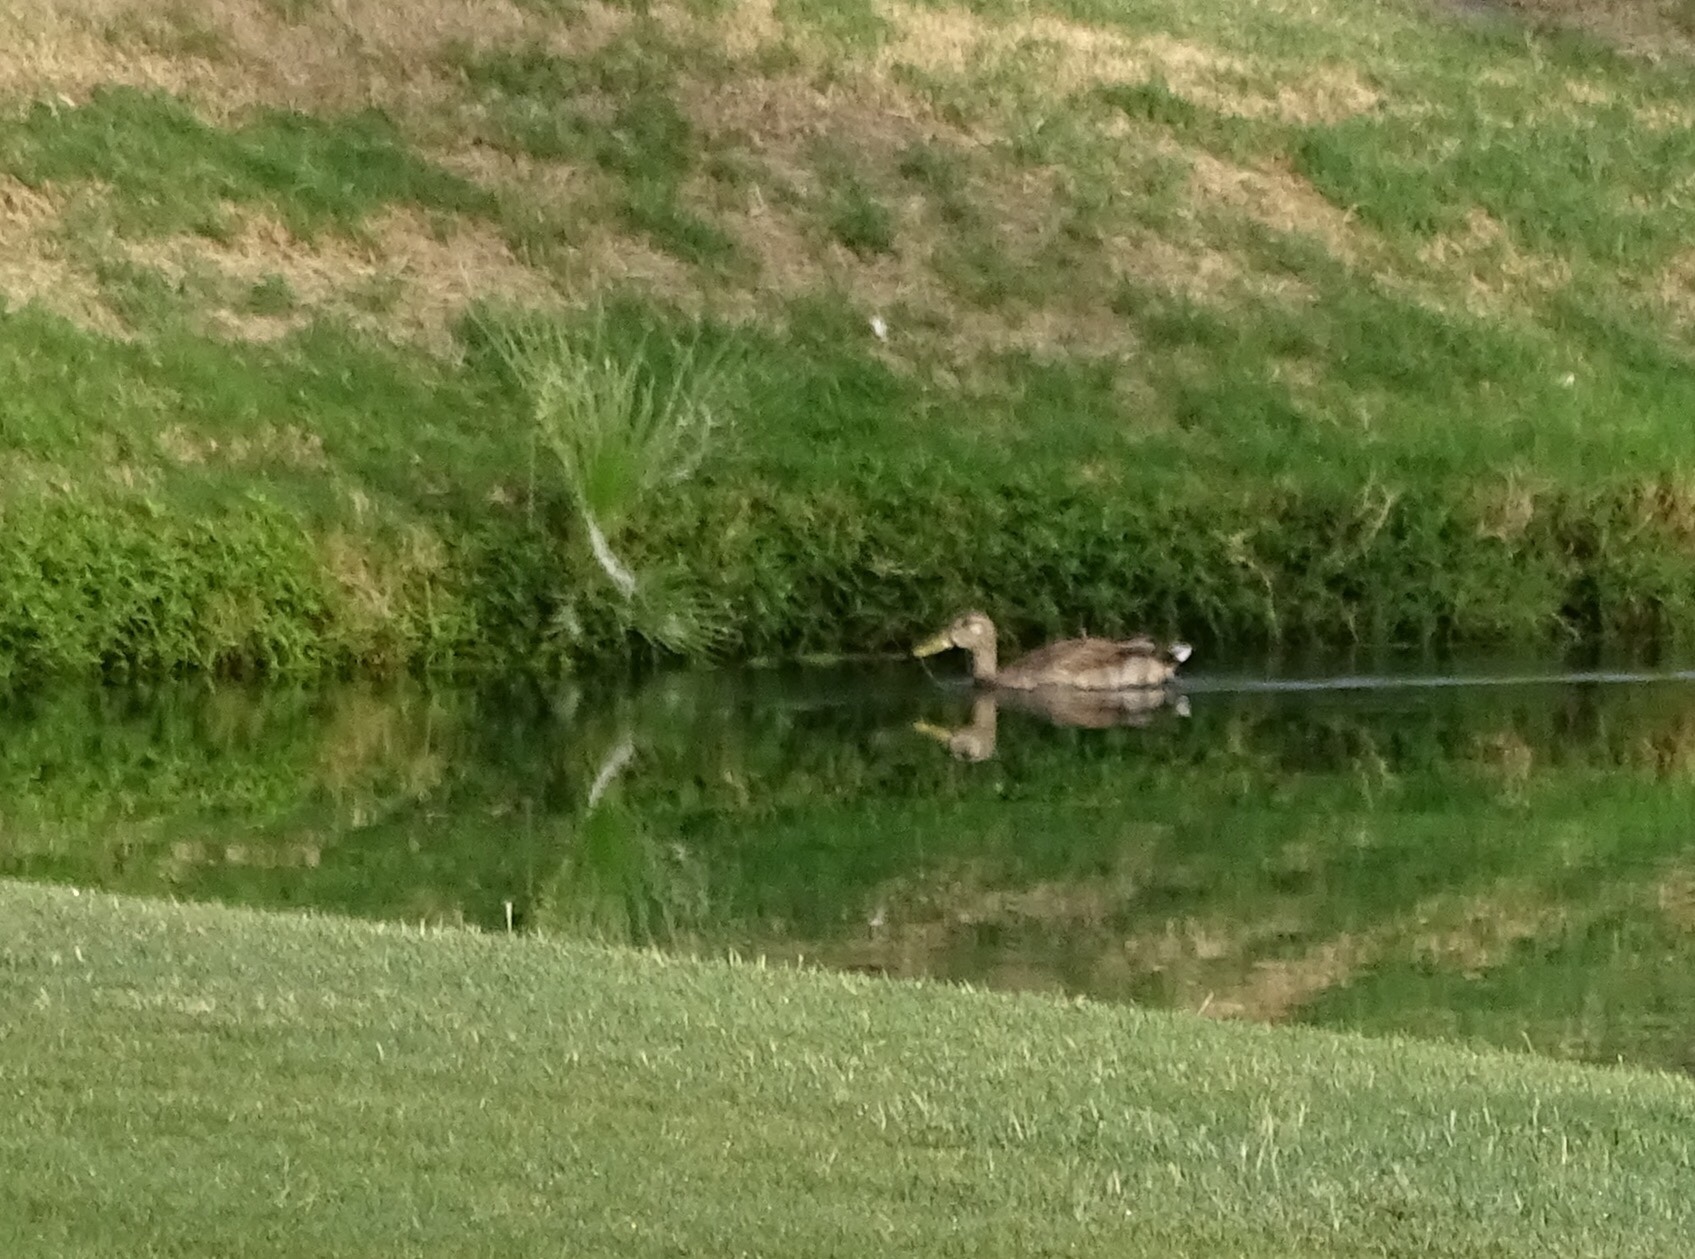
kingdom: Animalia
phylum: Chordata
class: Aves
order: Anseriformes
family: Anatidae
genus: Anas
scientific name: Anas platyrhynchos
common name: Mallard
